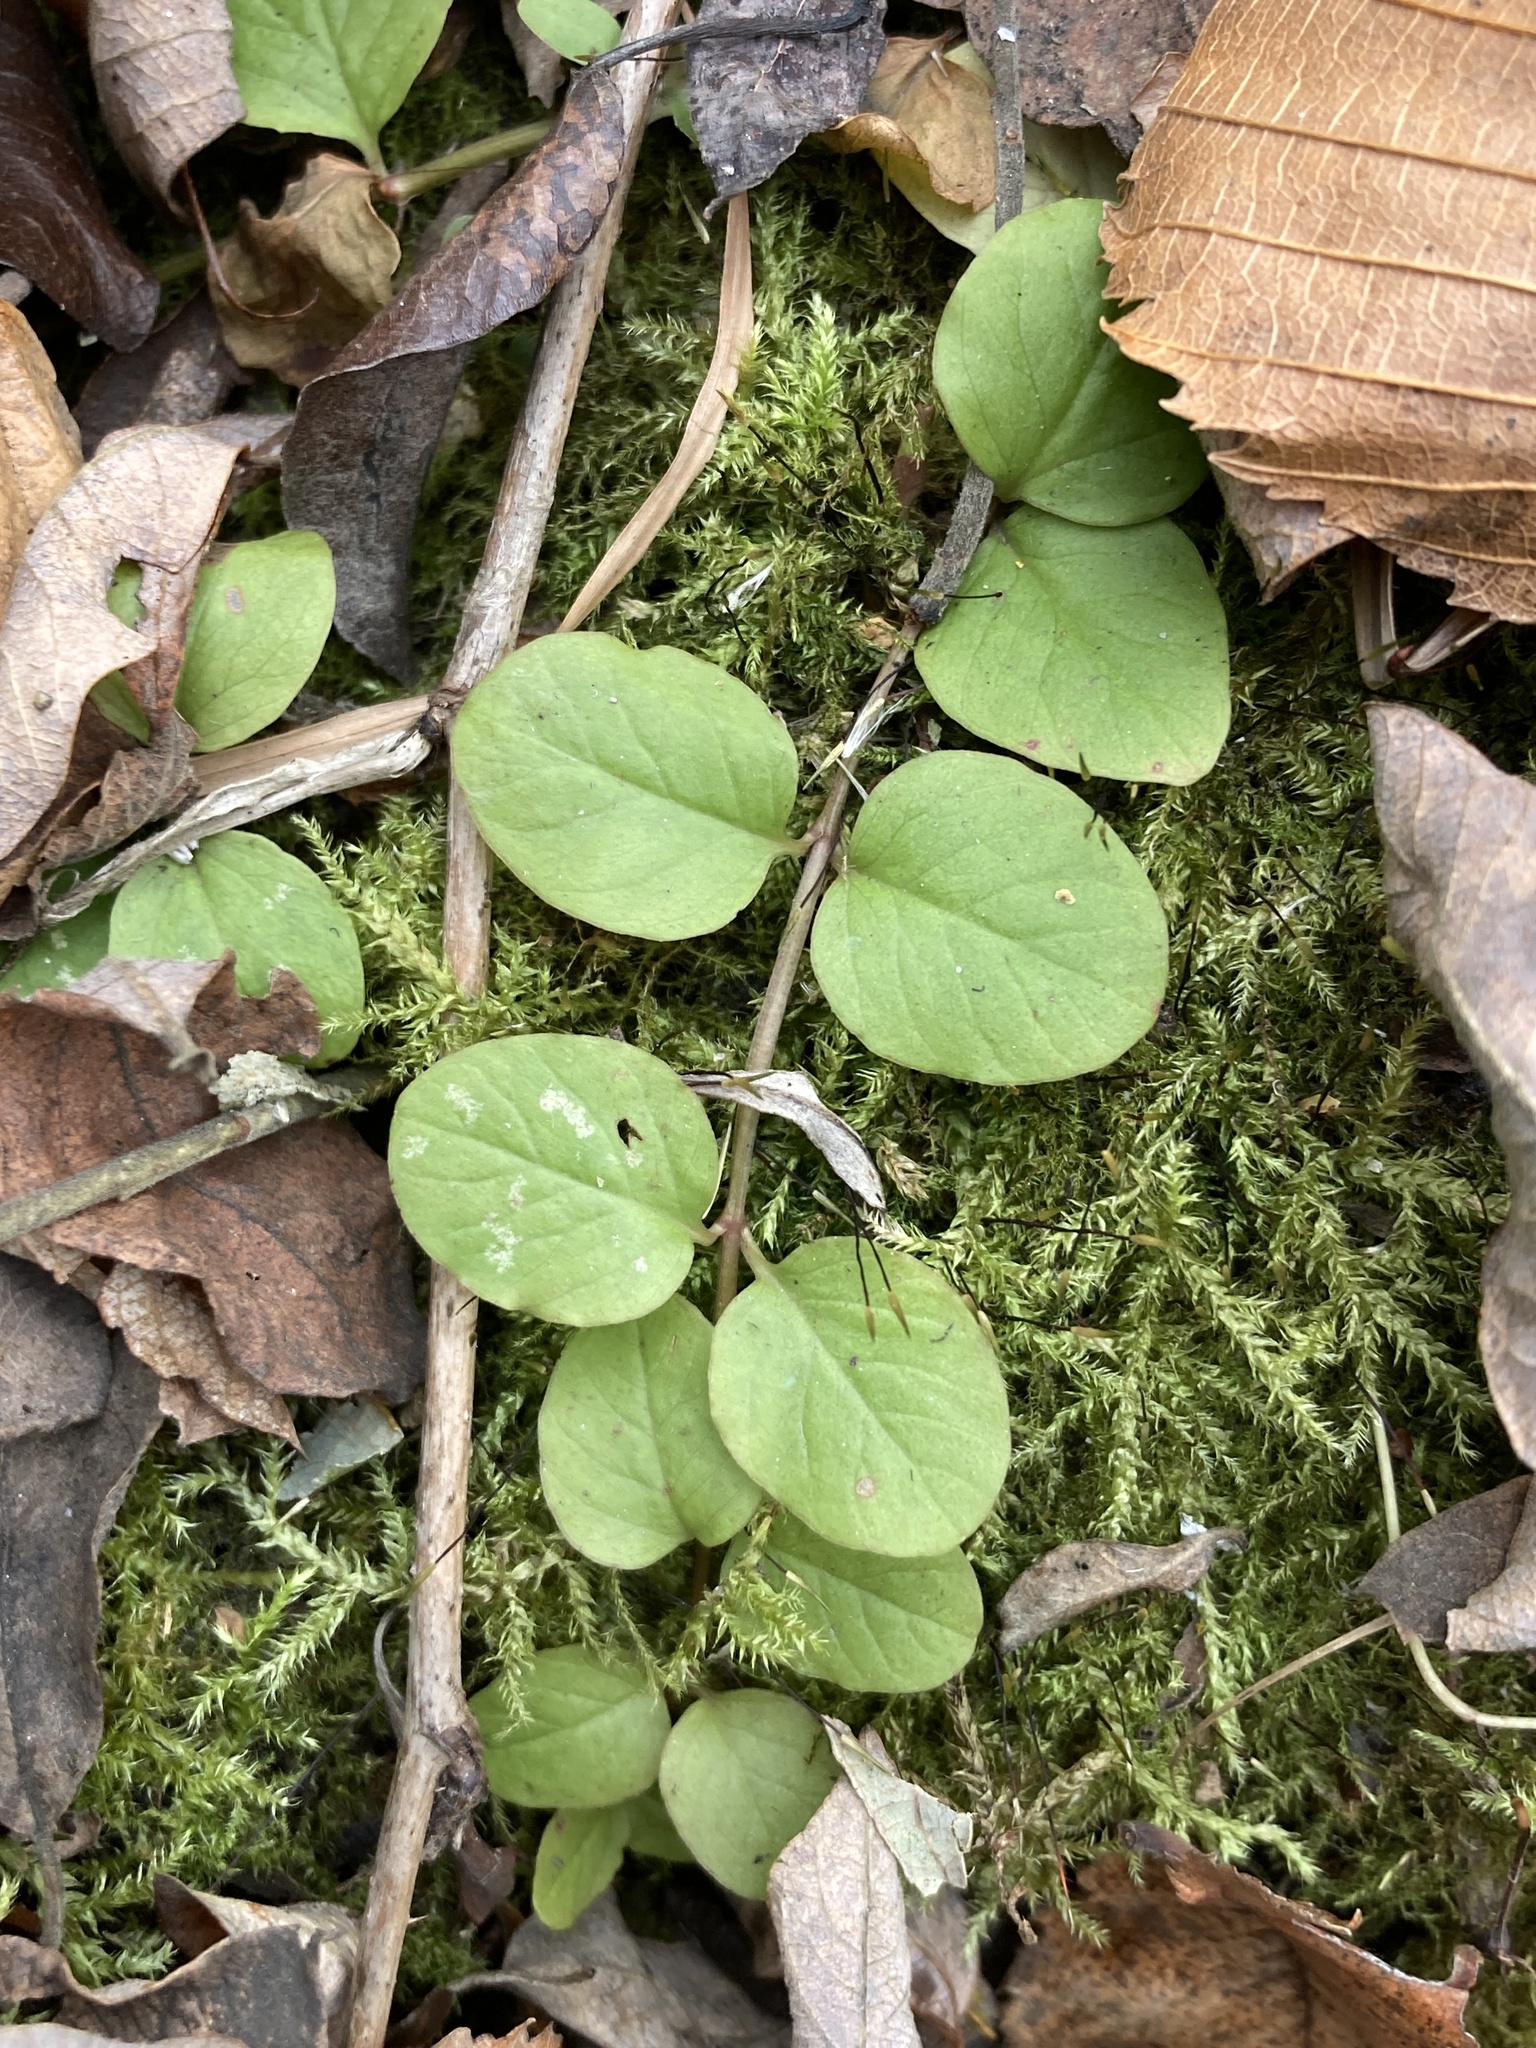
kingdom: Plantae
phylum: Tracheophyta
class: Magnoliopsida
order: Ericales
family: Primulaceae
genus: Lysimachia
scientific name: Lysimachia nummularia
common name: Moneywort
